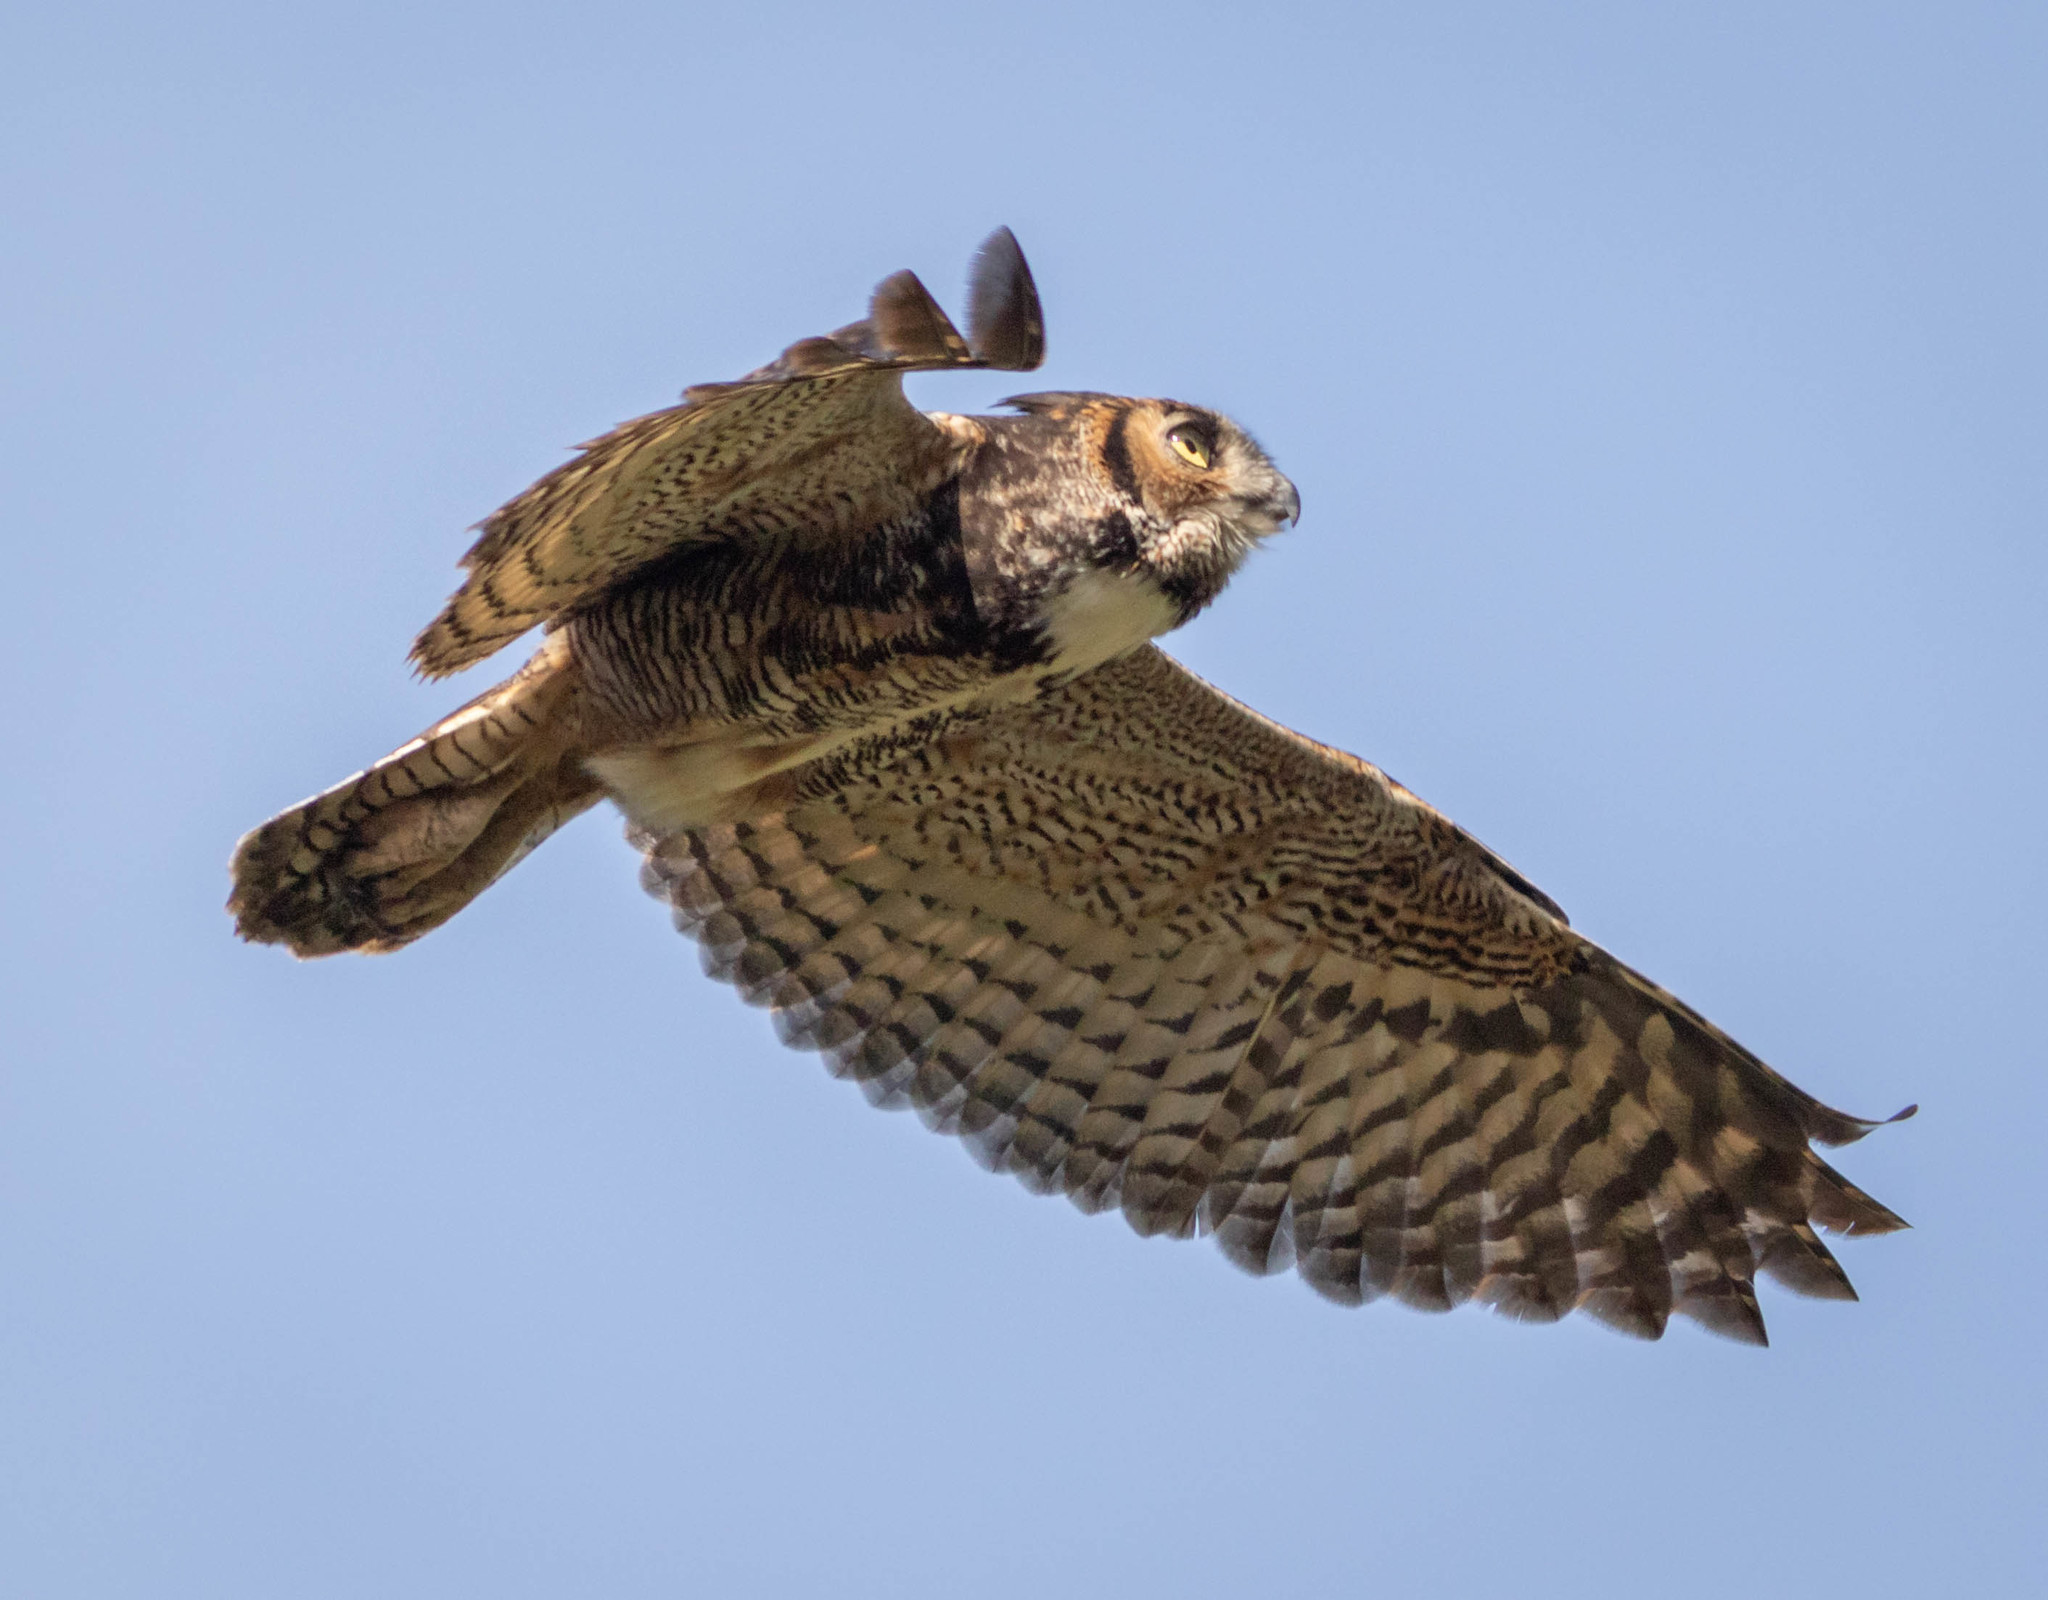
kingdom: Animalia
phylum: Chordata
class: Aves
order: Strigiformes
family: Strigidae
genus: Bubo
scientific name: Bubo virginianus
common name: Great horned owl
